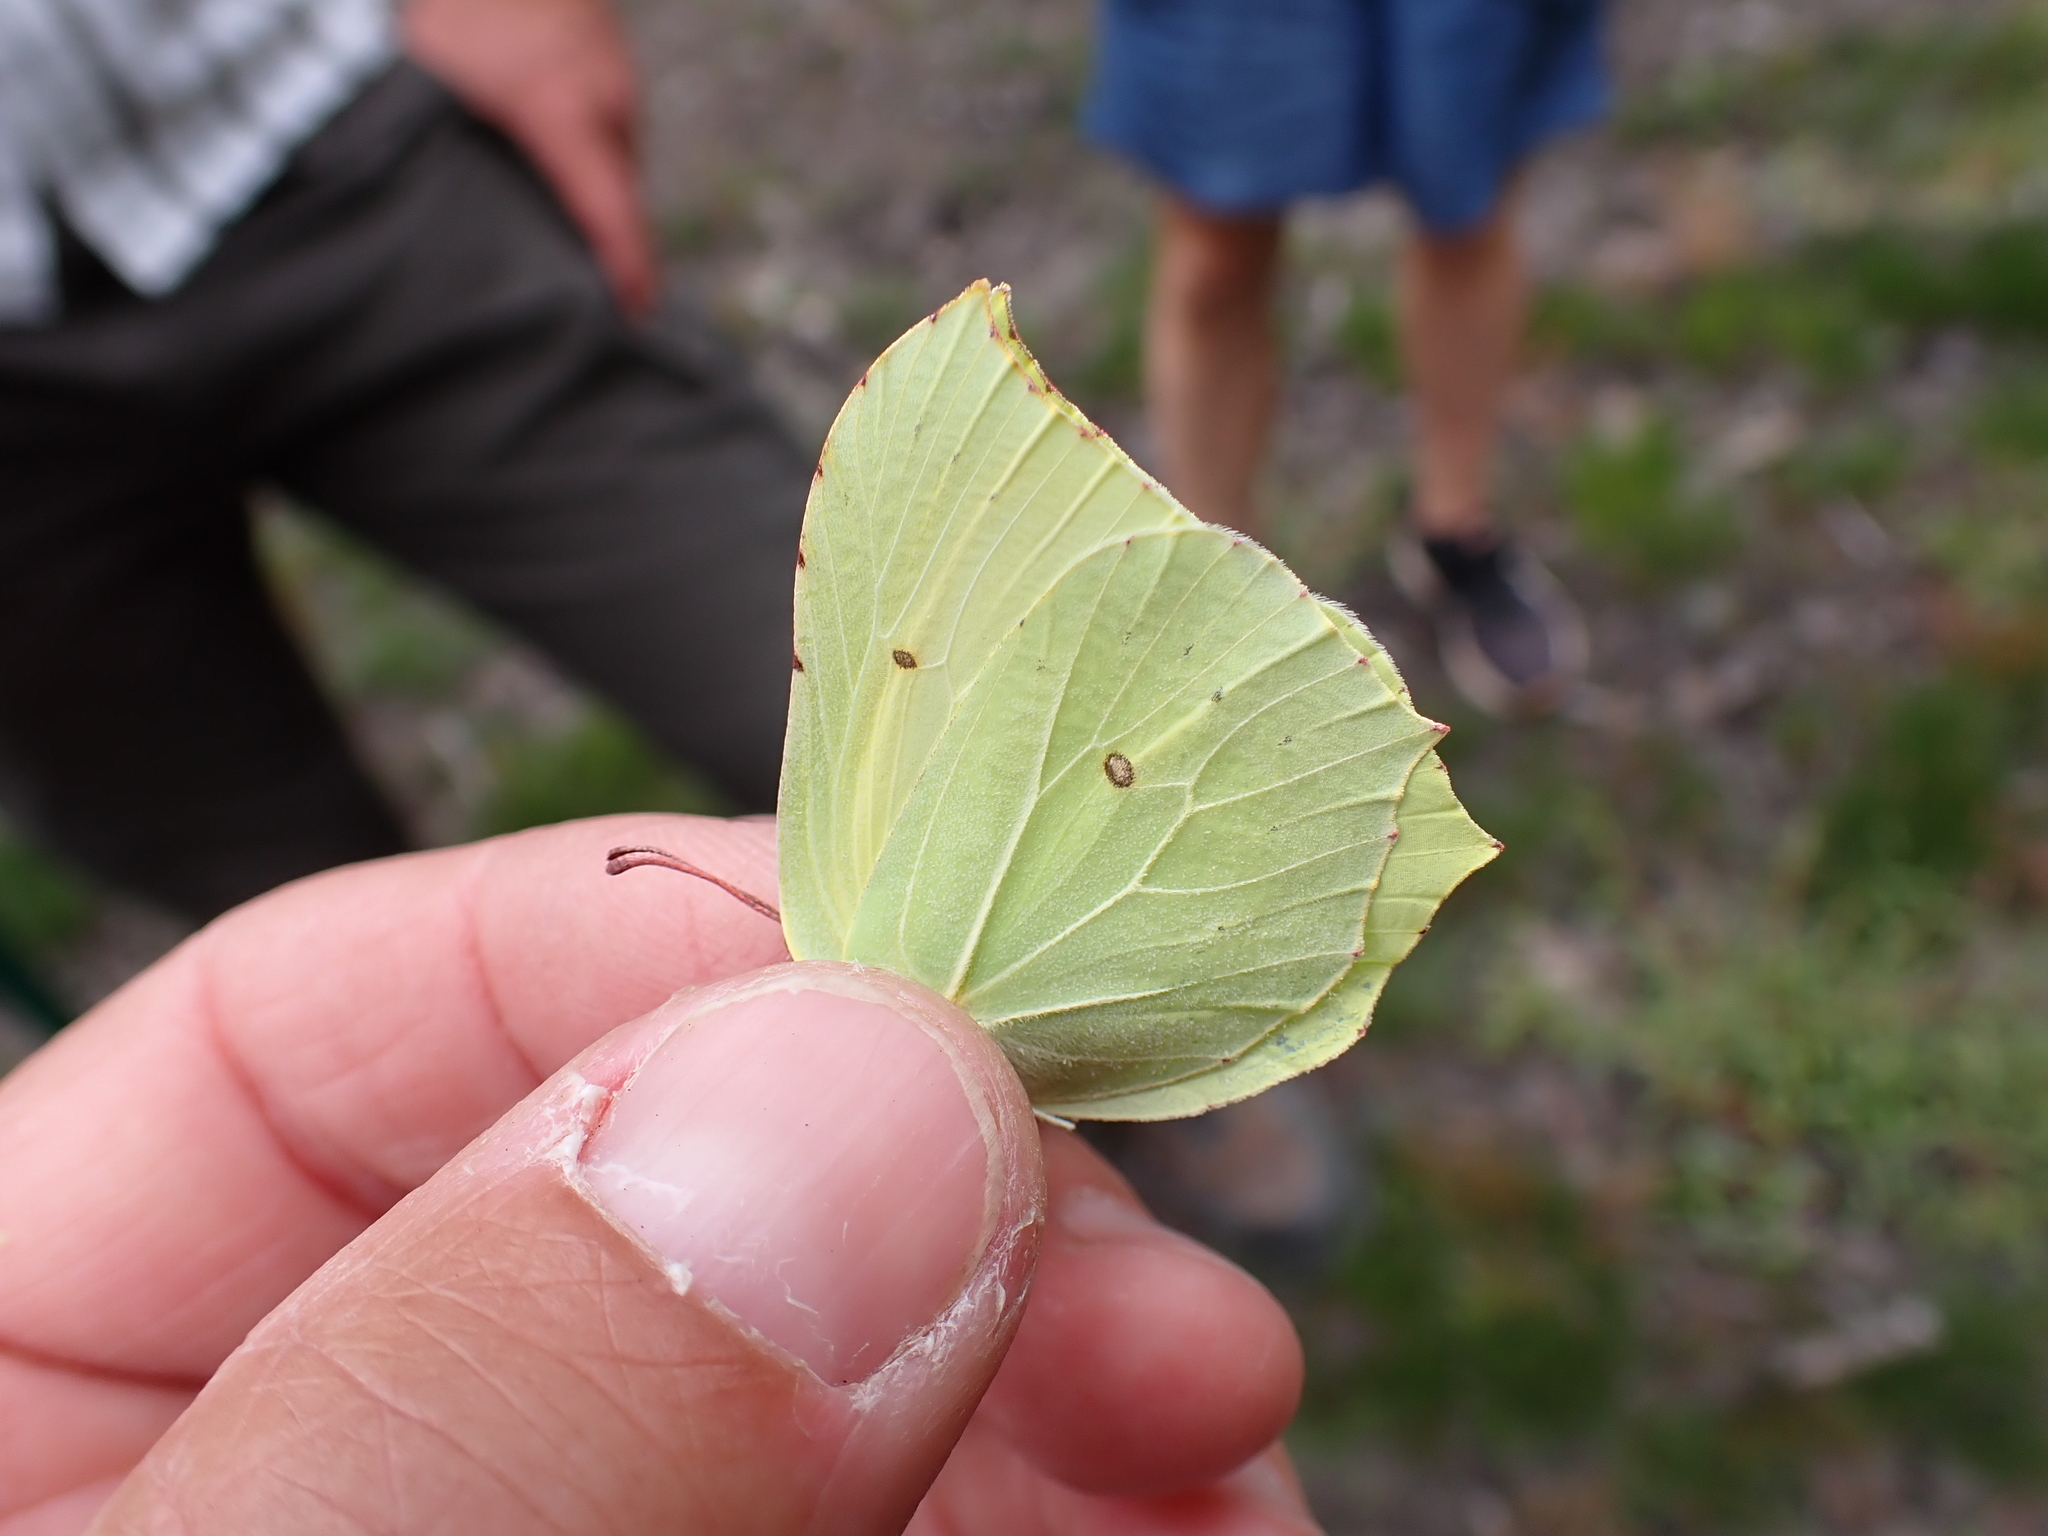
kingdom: Animalia
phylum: Arthropoda
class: Insecta
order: Lepidoptera
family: Pieridae
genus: Gonepteryx
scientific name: Gonepteryx rhamni
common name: Brimstone
